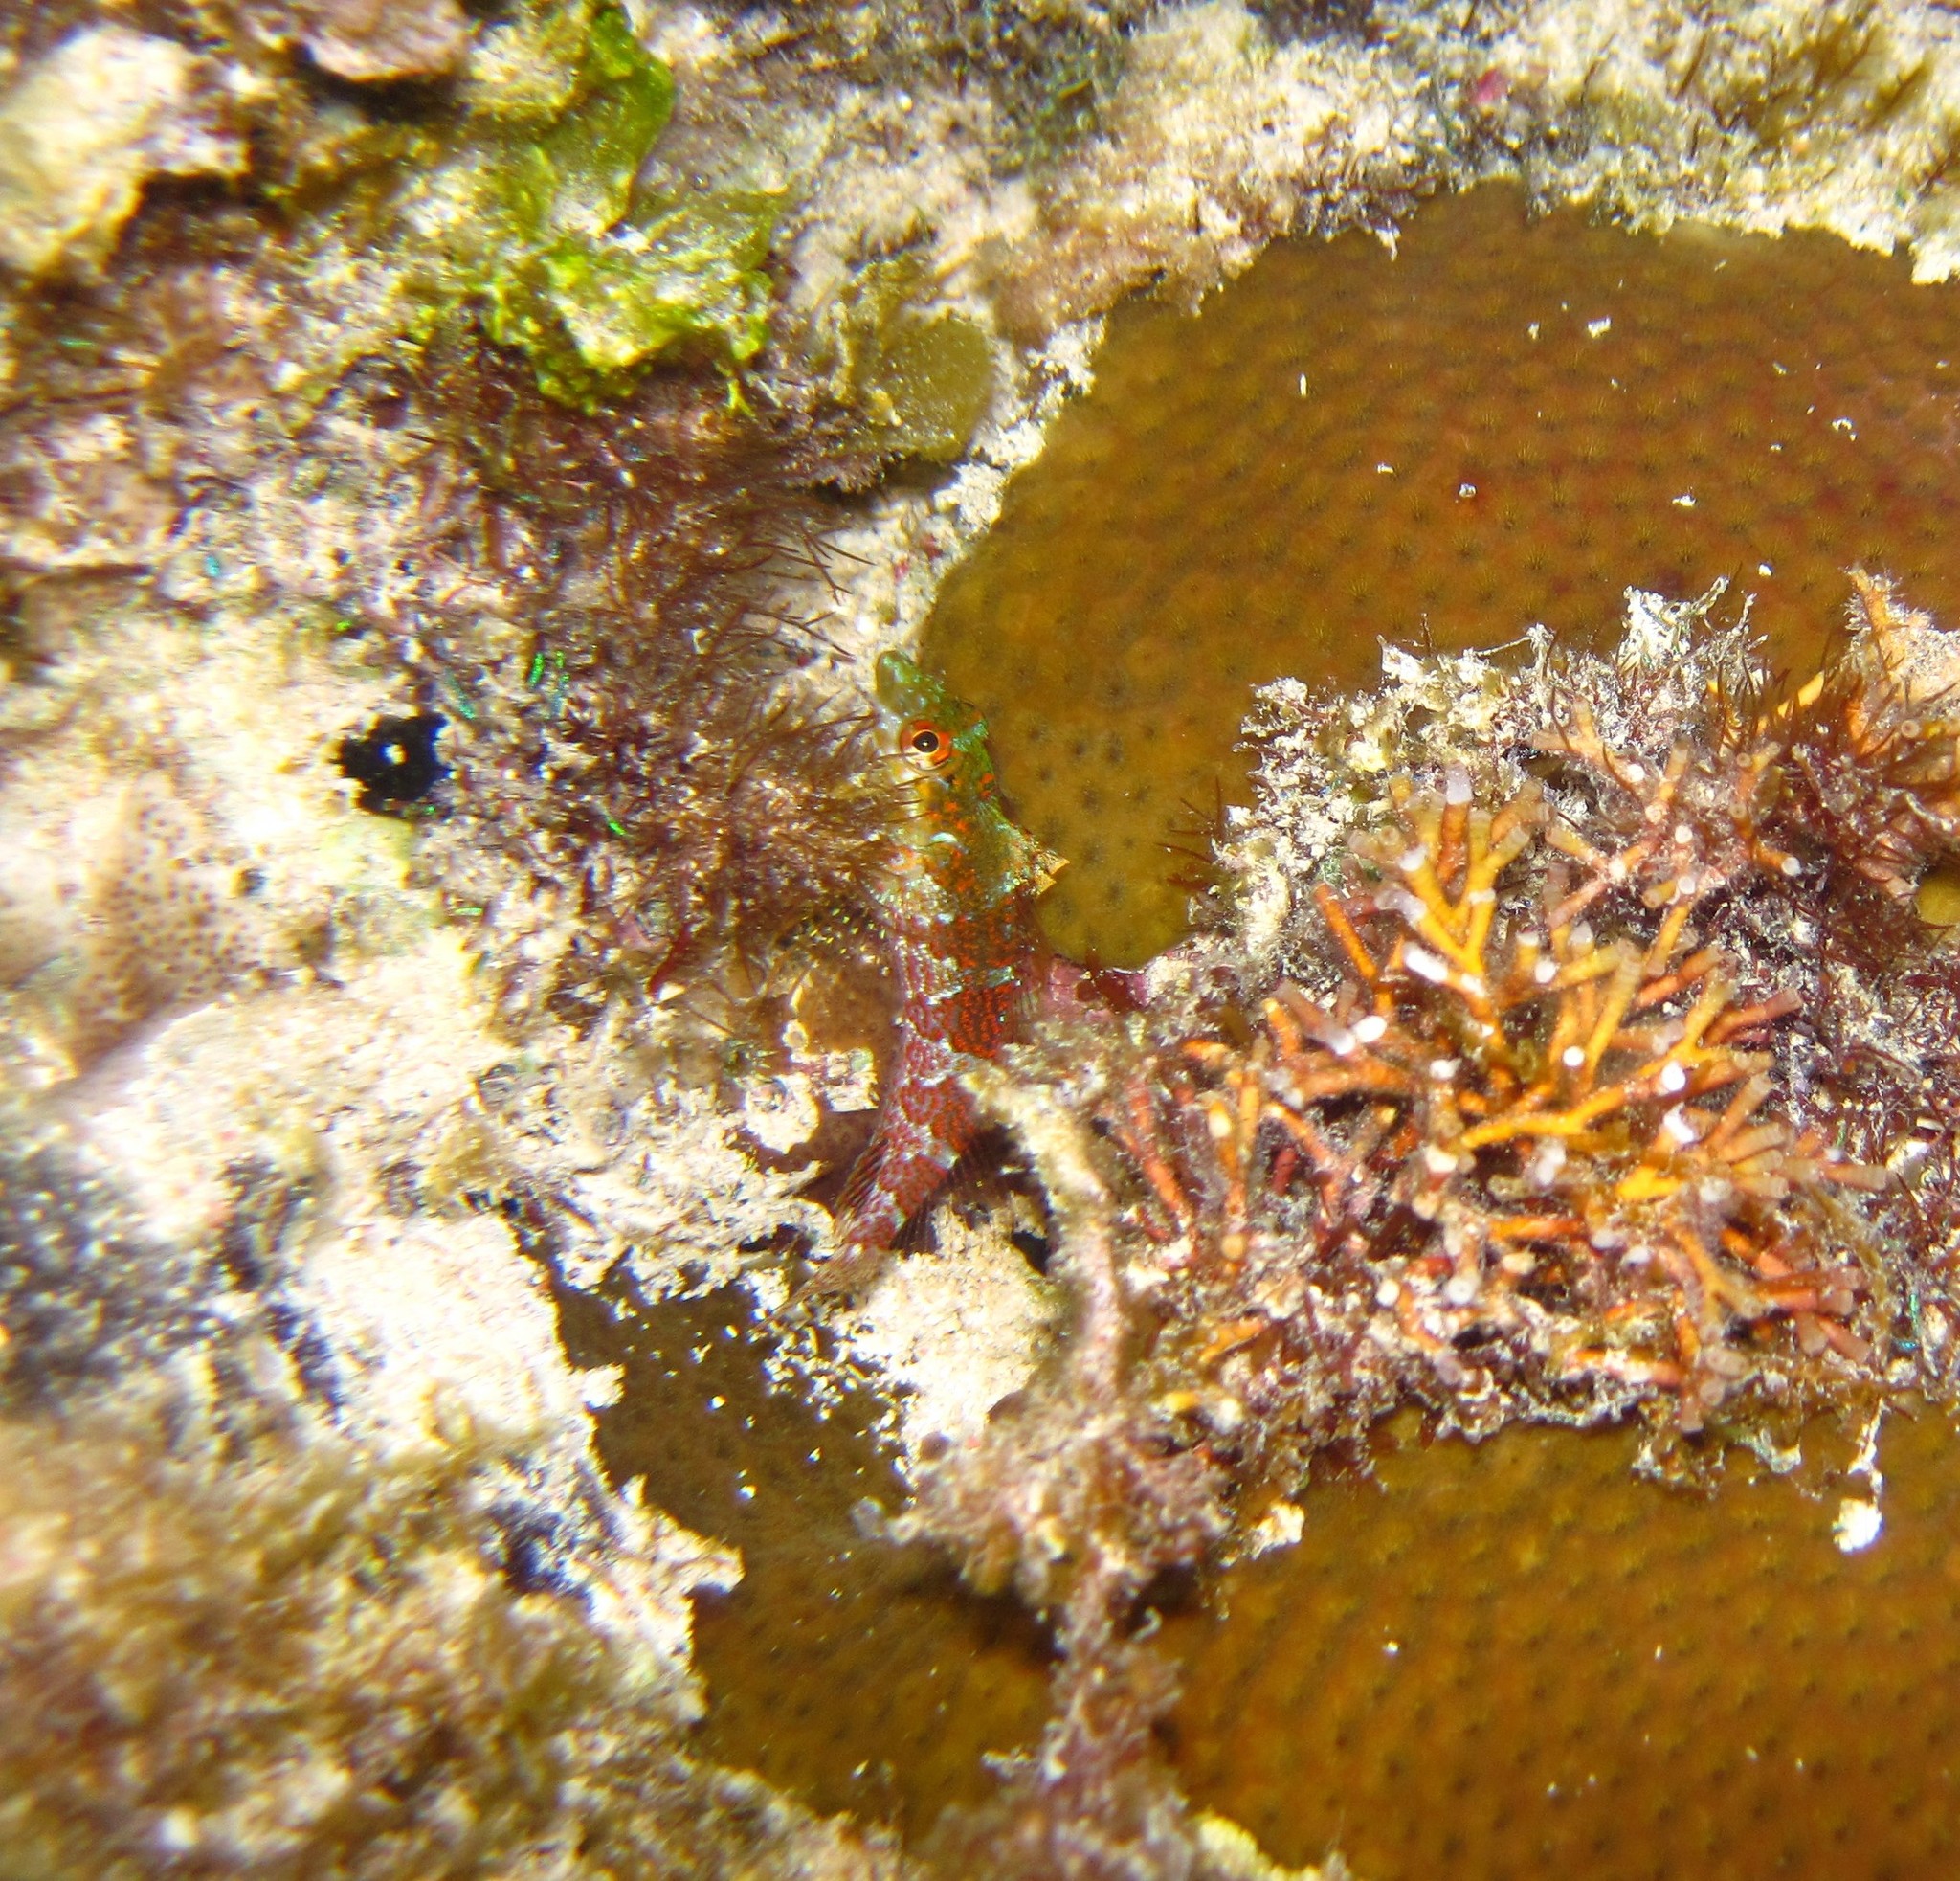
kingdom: Animalia
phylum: Chordata
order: Perciformes
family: Labrisomidae
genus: Malacoctenus
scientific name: Malacoctenus triangulatus
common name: Saddled blenny
